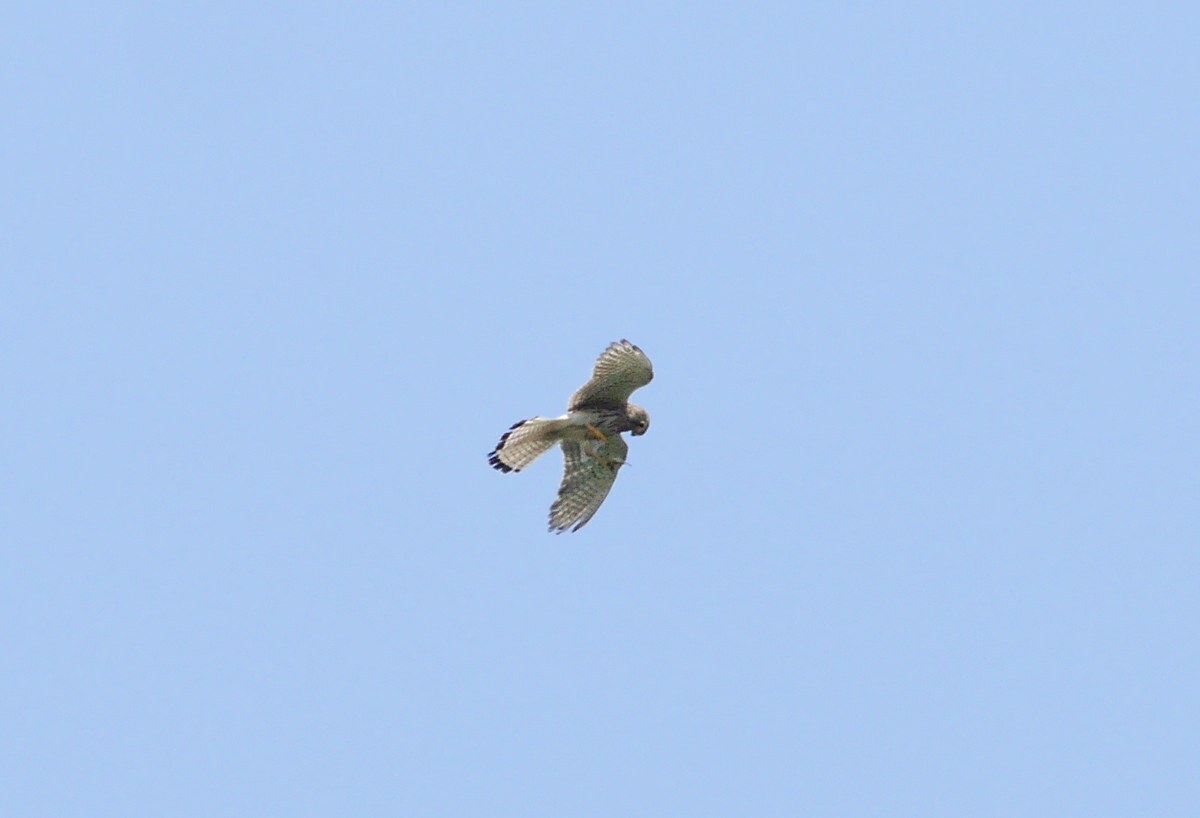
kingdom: Animalia
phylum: Chordata
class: Aves
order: Falconiformes
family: Falconidae
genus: Falco
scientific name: Falco tinnunculus
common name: Common kestrel
